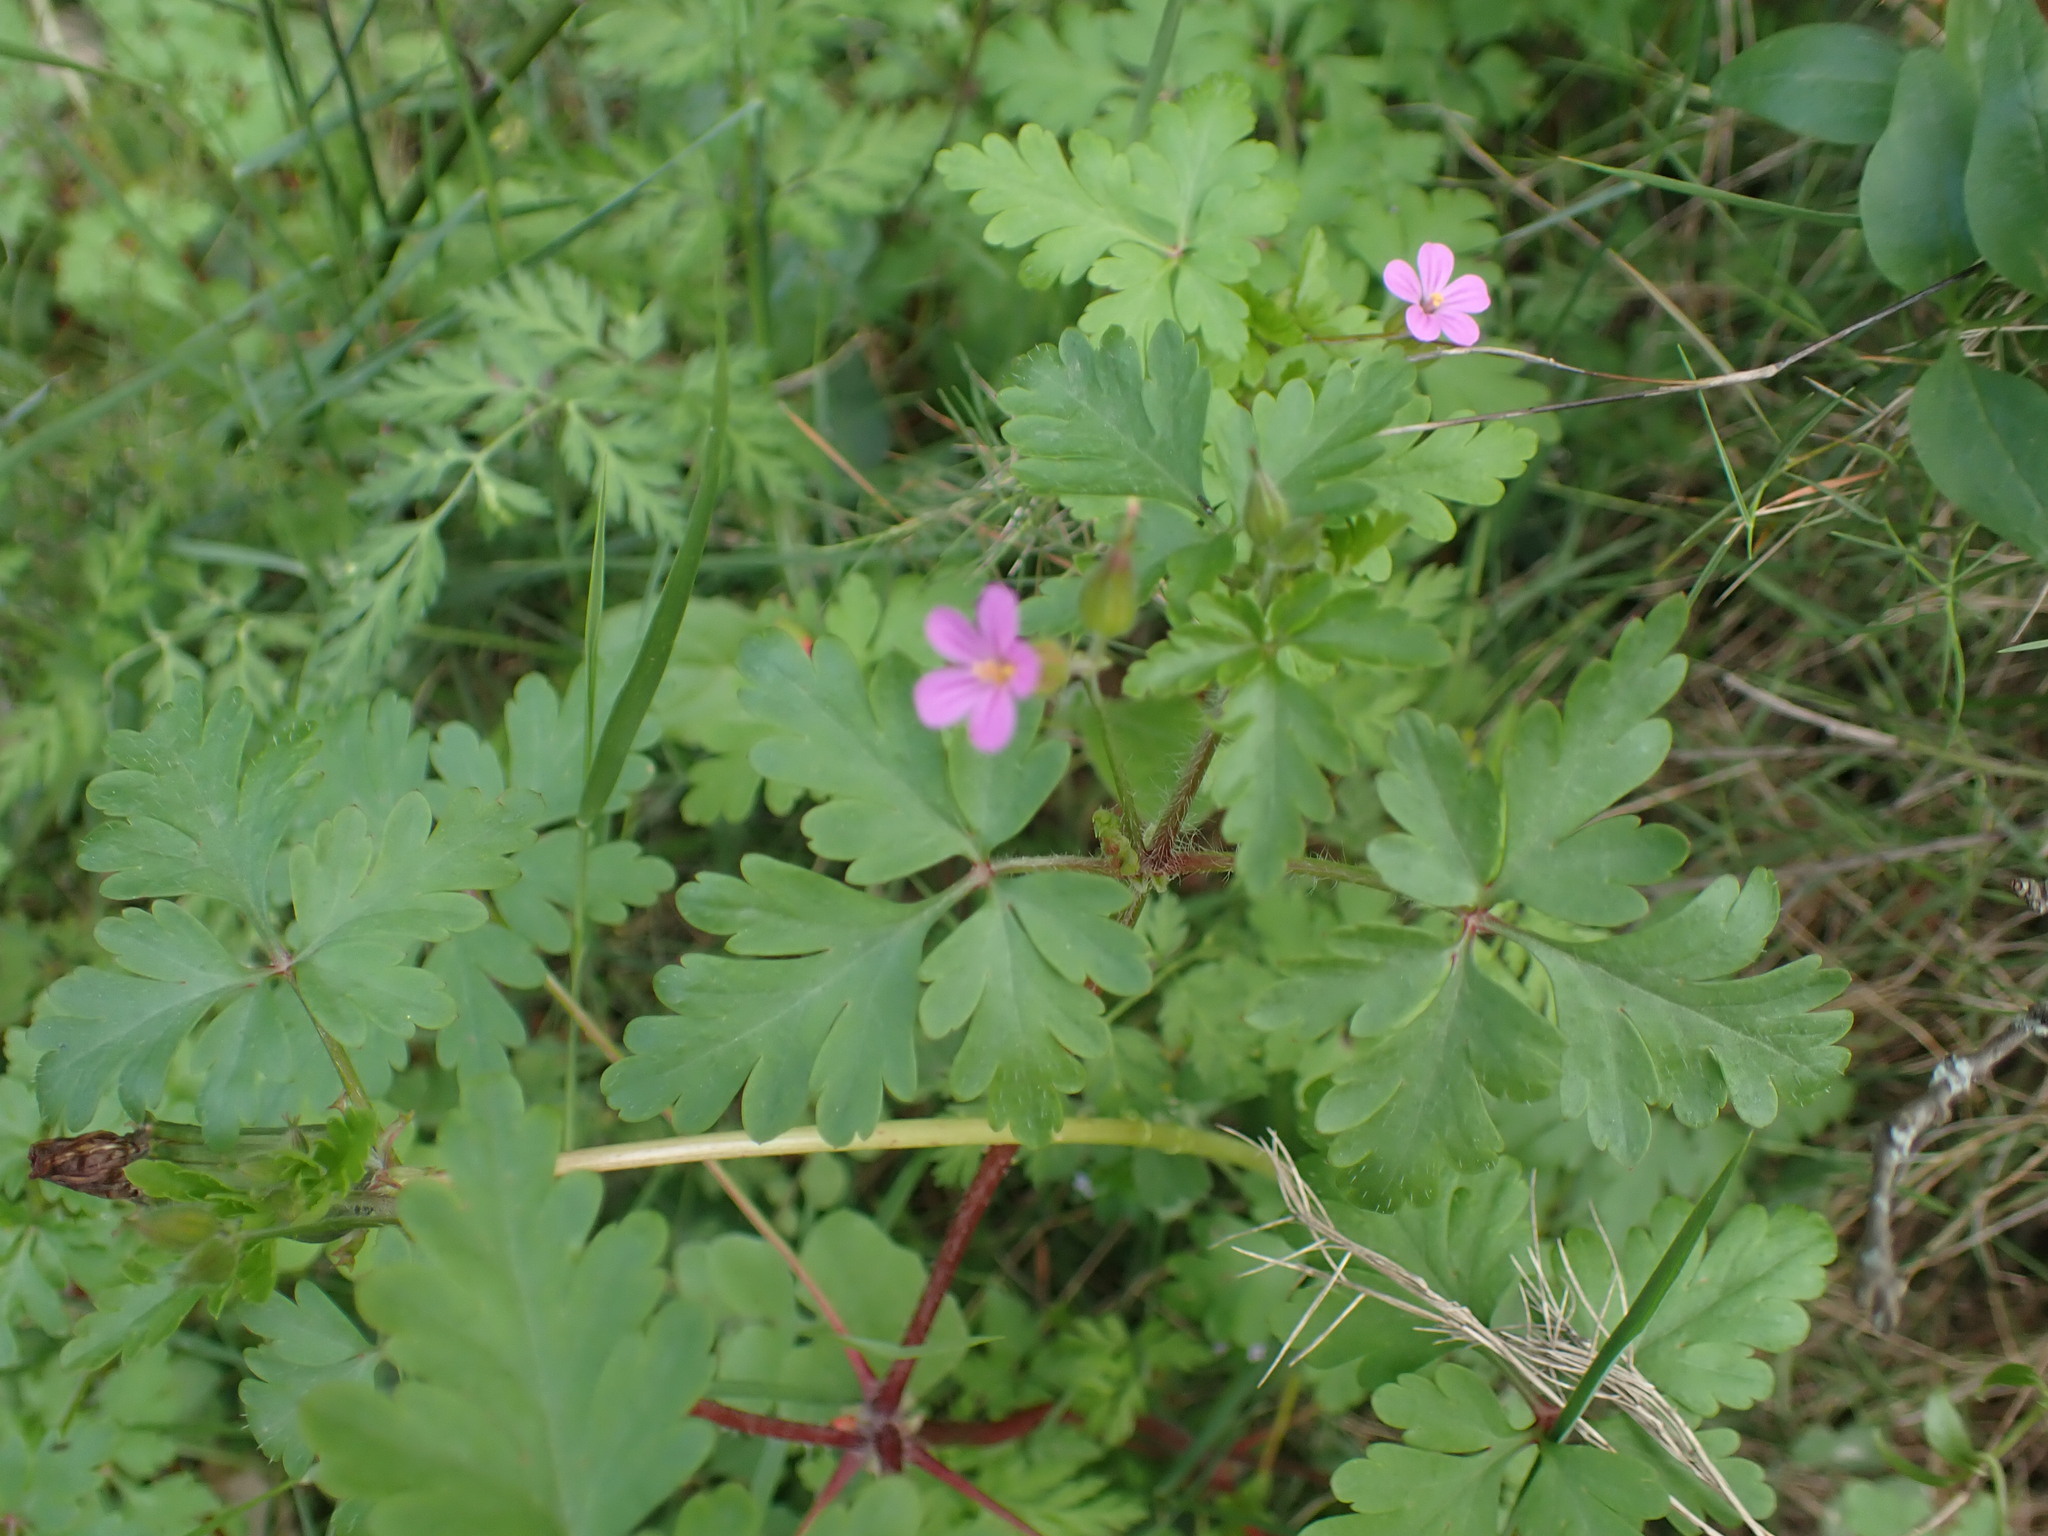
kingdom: Plantae
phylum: Tracheophyta
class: Magnoliopsida
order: Geraniales
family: Geraniaceae
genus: Geranium
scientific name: Geranium purpureum
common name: Little-robin
